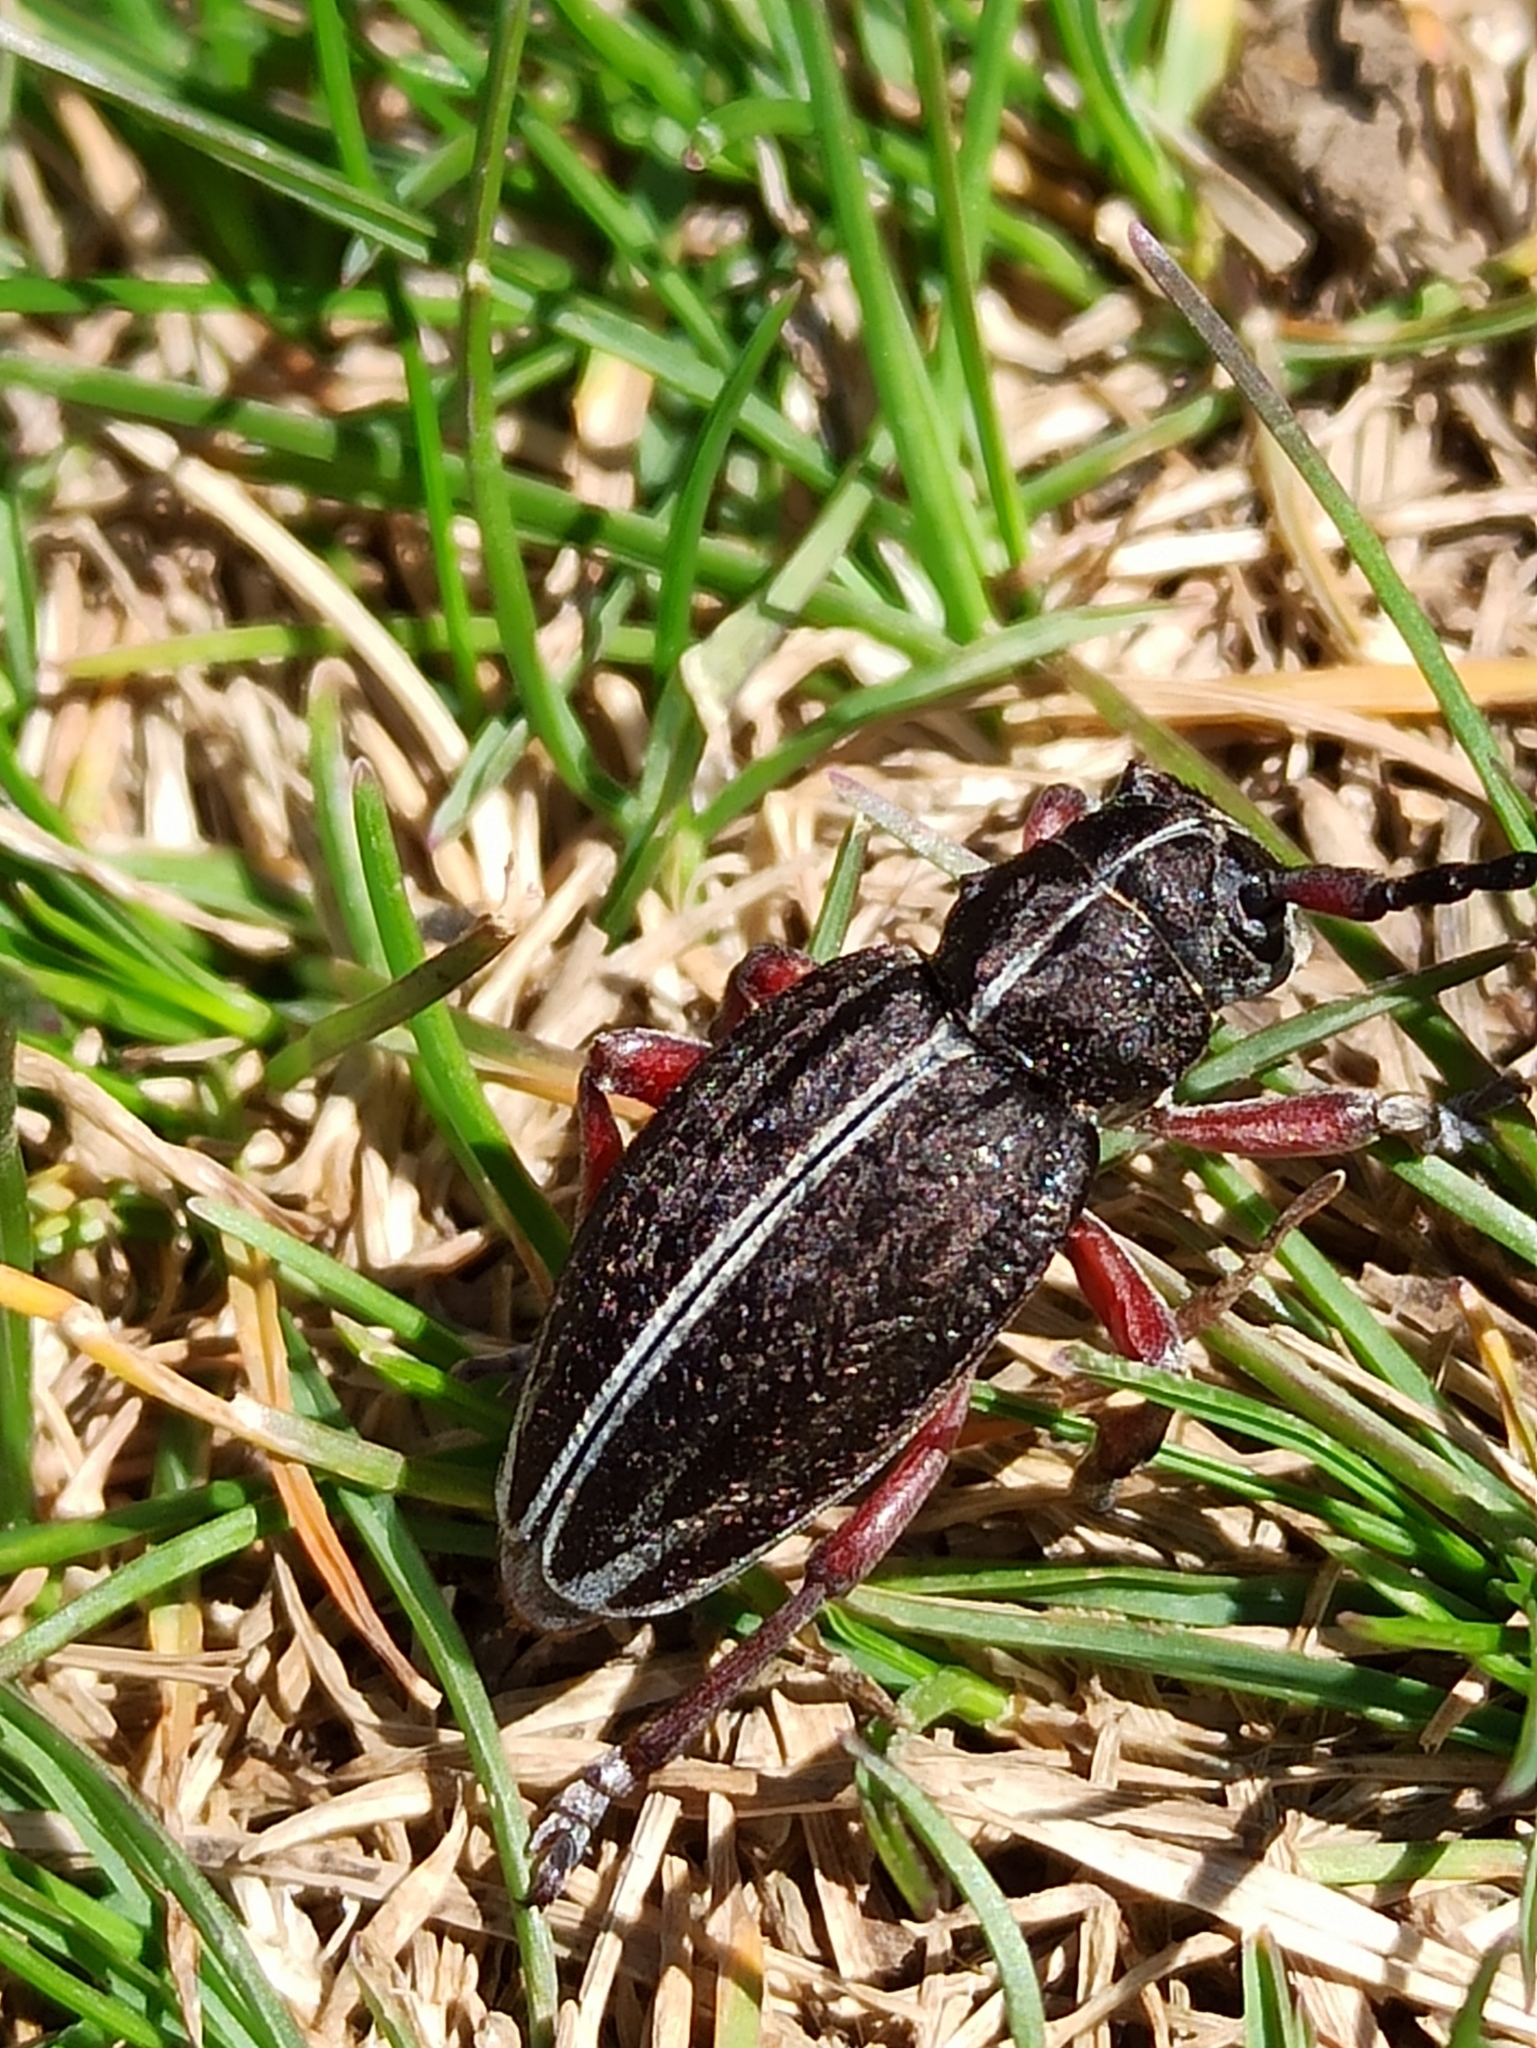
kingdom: Animalia
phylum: Arthropoda
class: Insecta
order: Coleoptera
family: Cerambycidae
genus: Dorcadion
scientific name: Dorcadion pedestre
